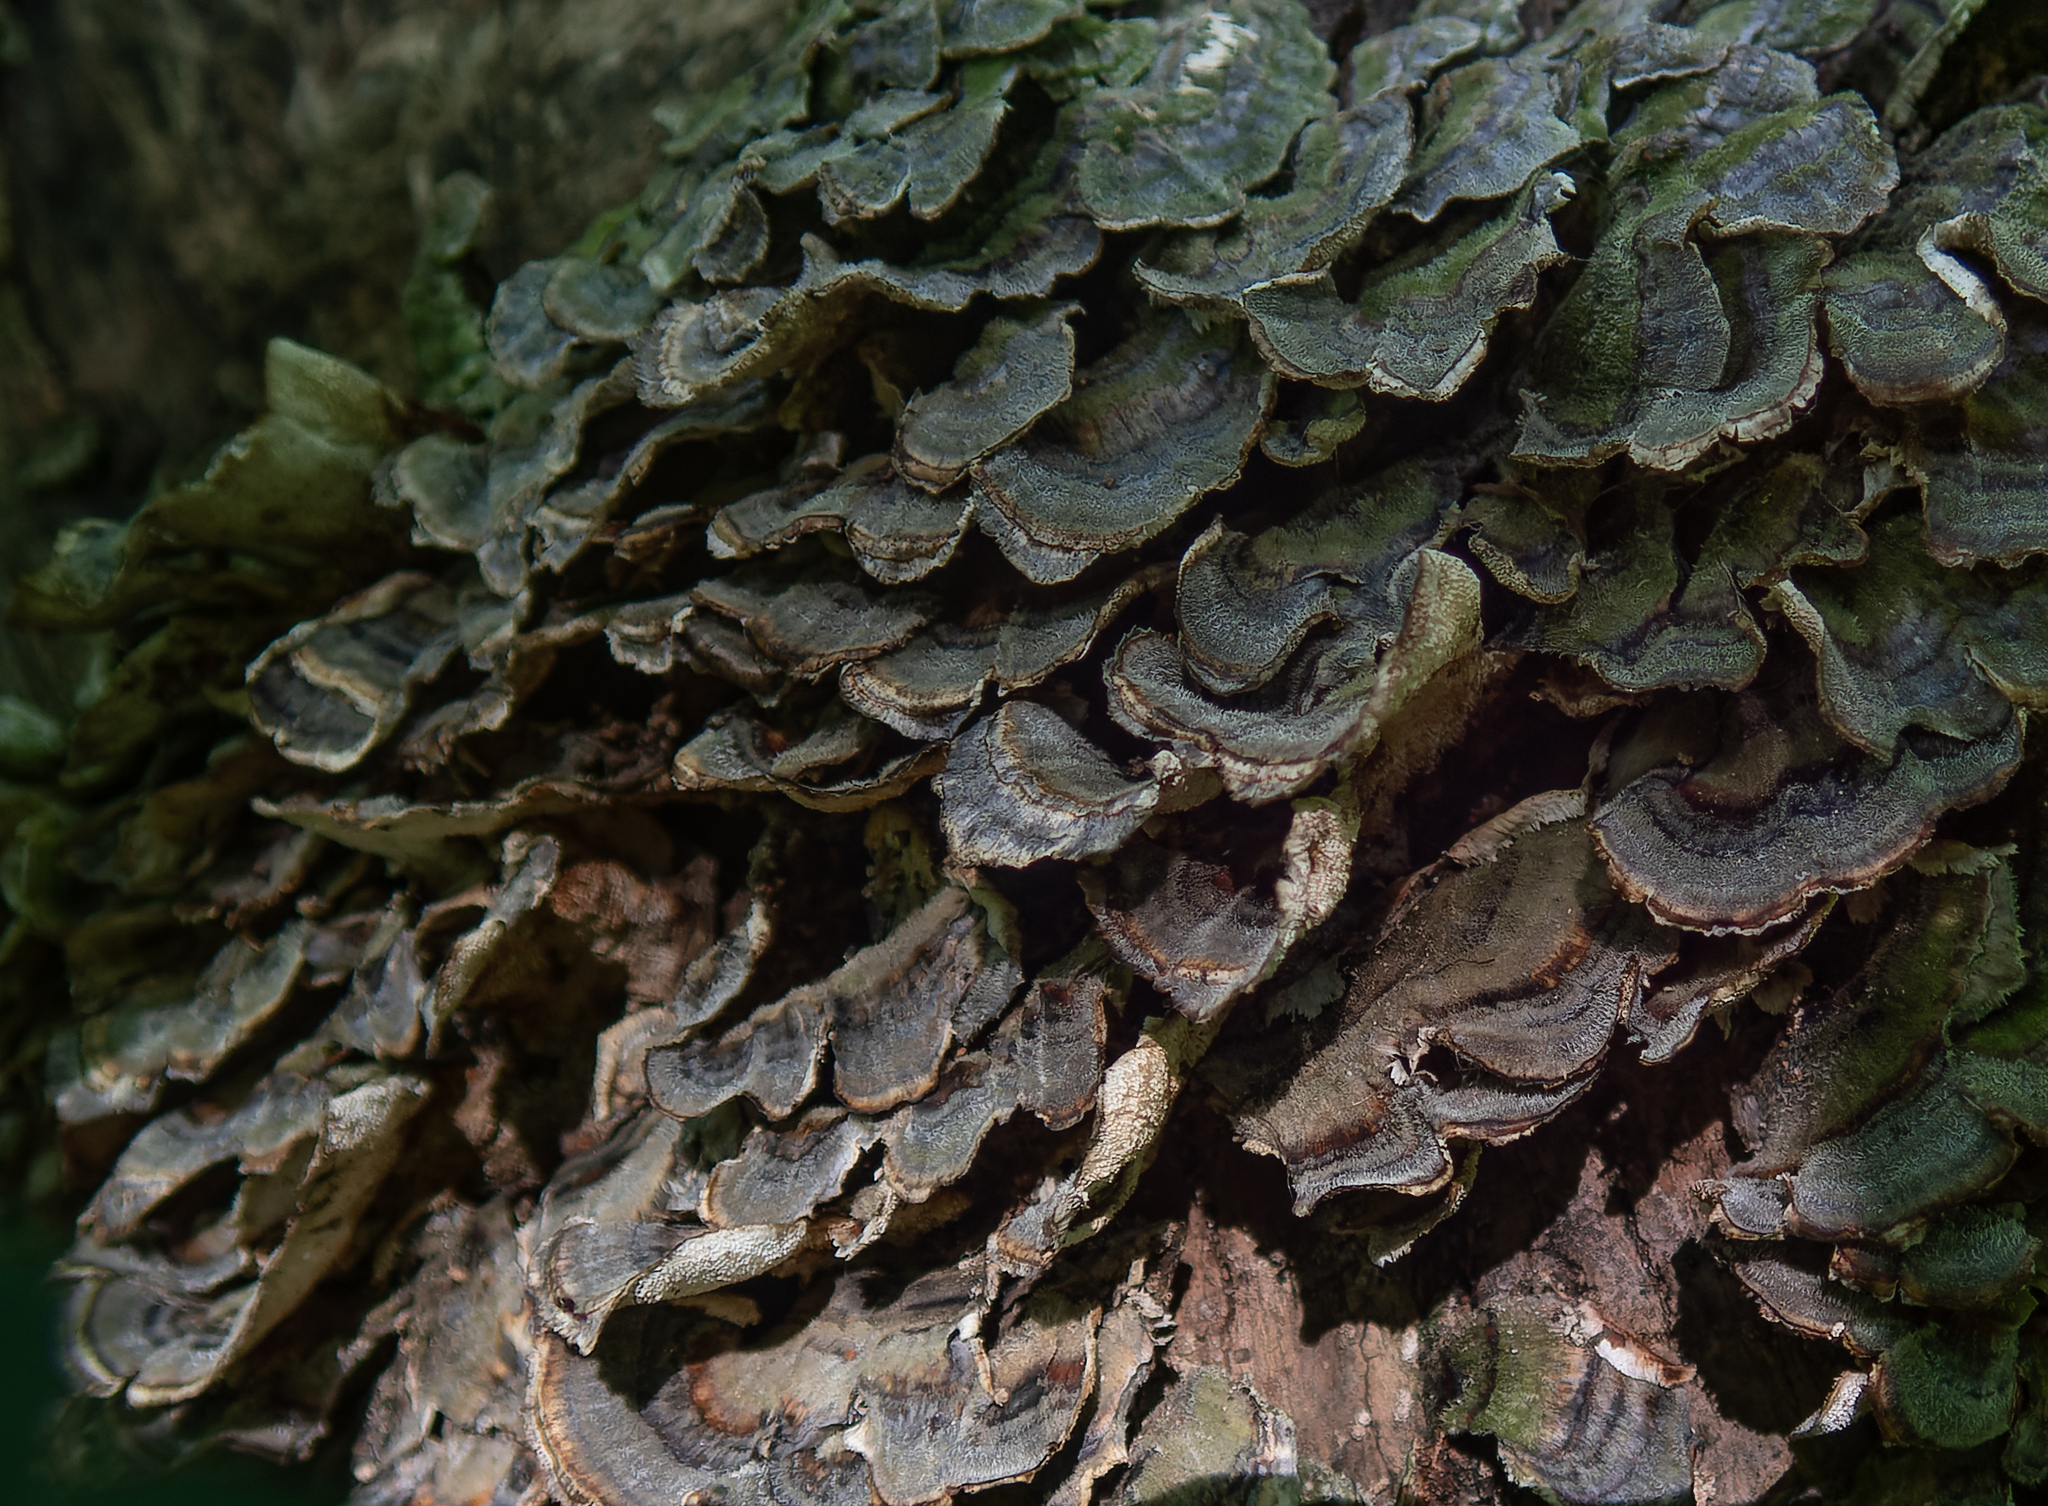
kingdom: Fungi
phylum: Basidiomycota
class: Agaricomycetes
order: Polyporales
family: Polyporaceae
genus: Trametes
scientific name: Trametes versicolor
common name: Turkeytail
